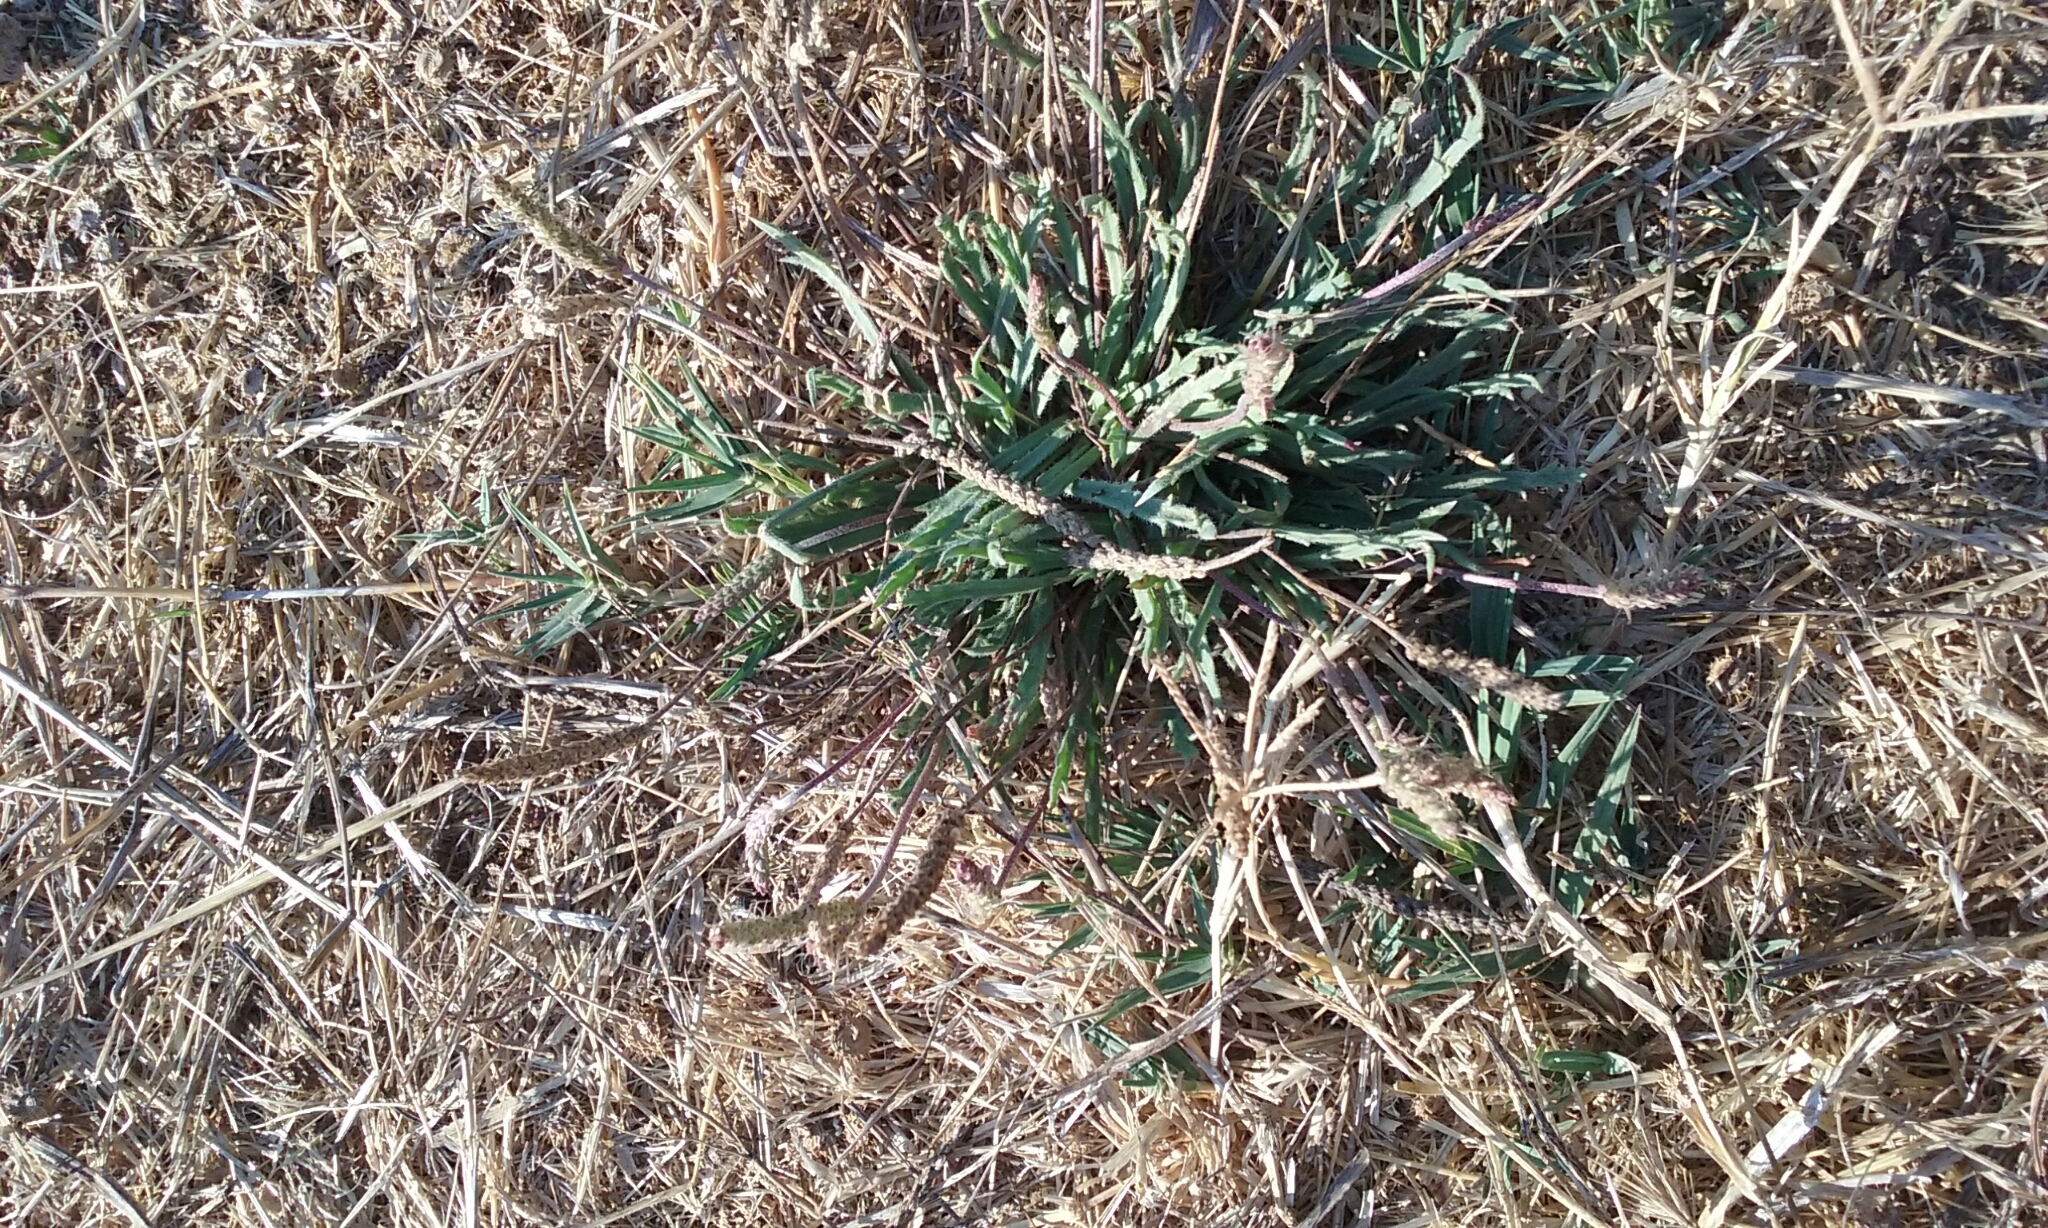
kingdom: Plantae
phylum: Tracheophyta
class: Magnoliopsida
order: Lamiales
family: Plantaginaceae
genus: Plantago
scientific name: Plantago coronopus
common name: Buck's-horn plantain
